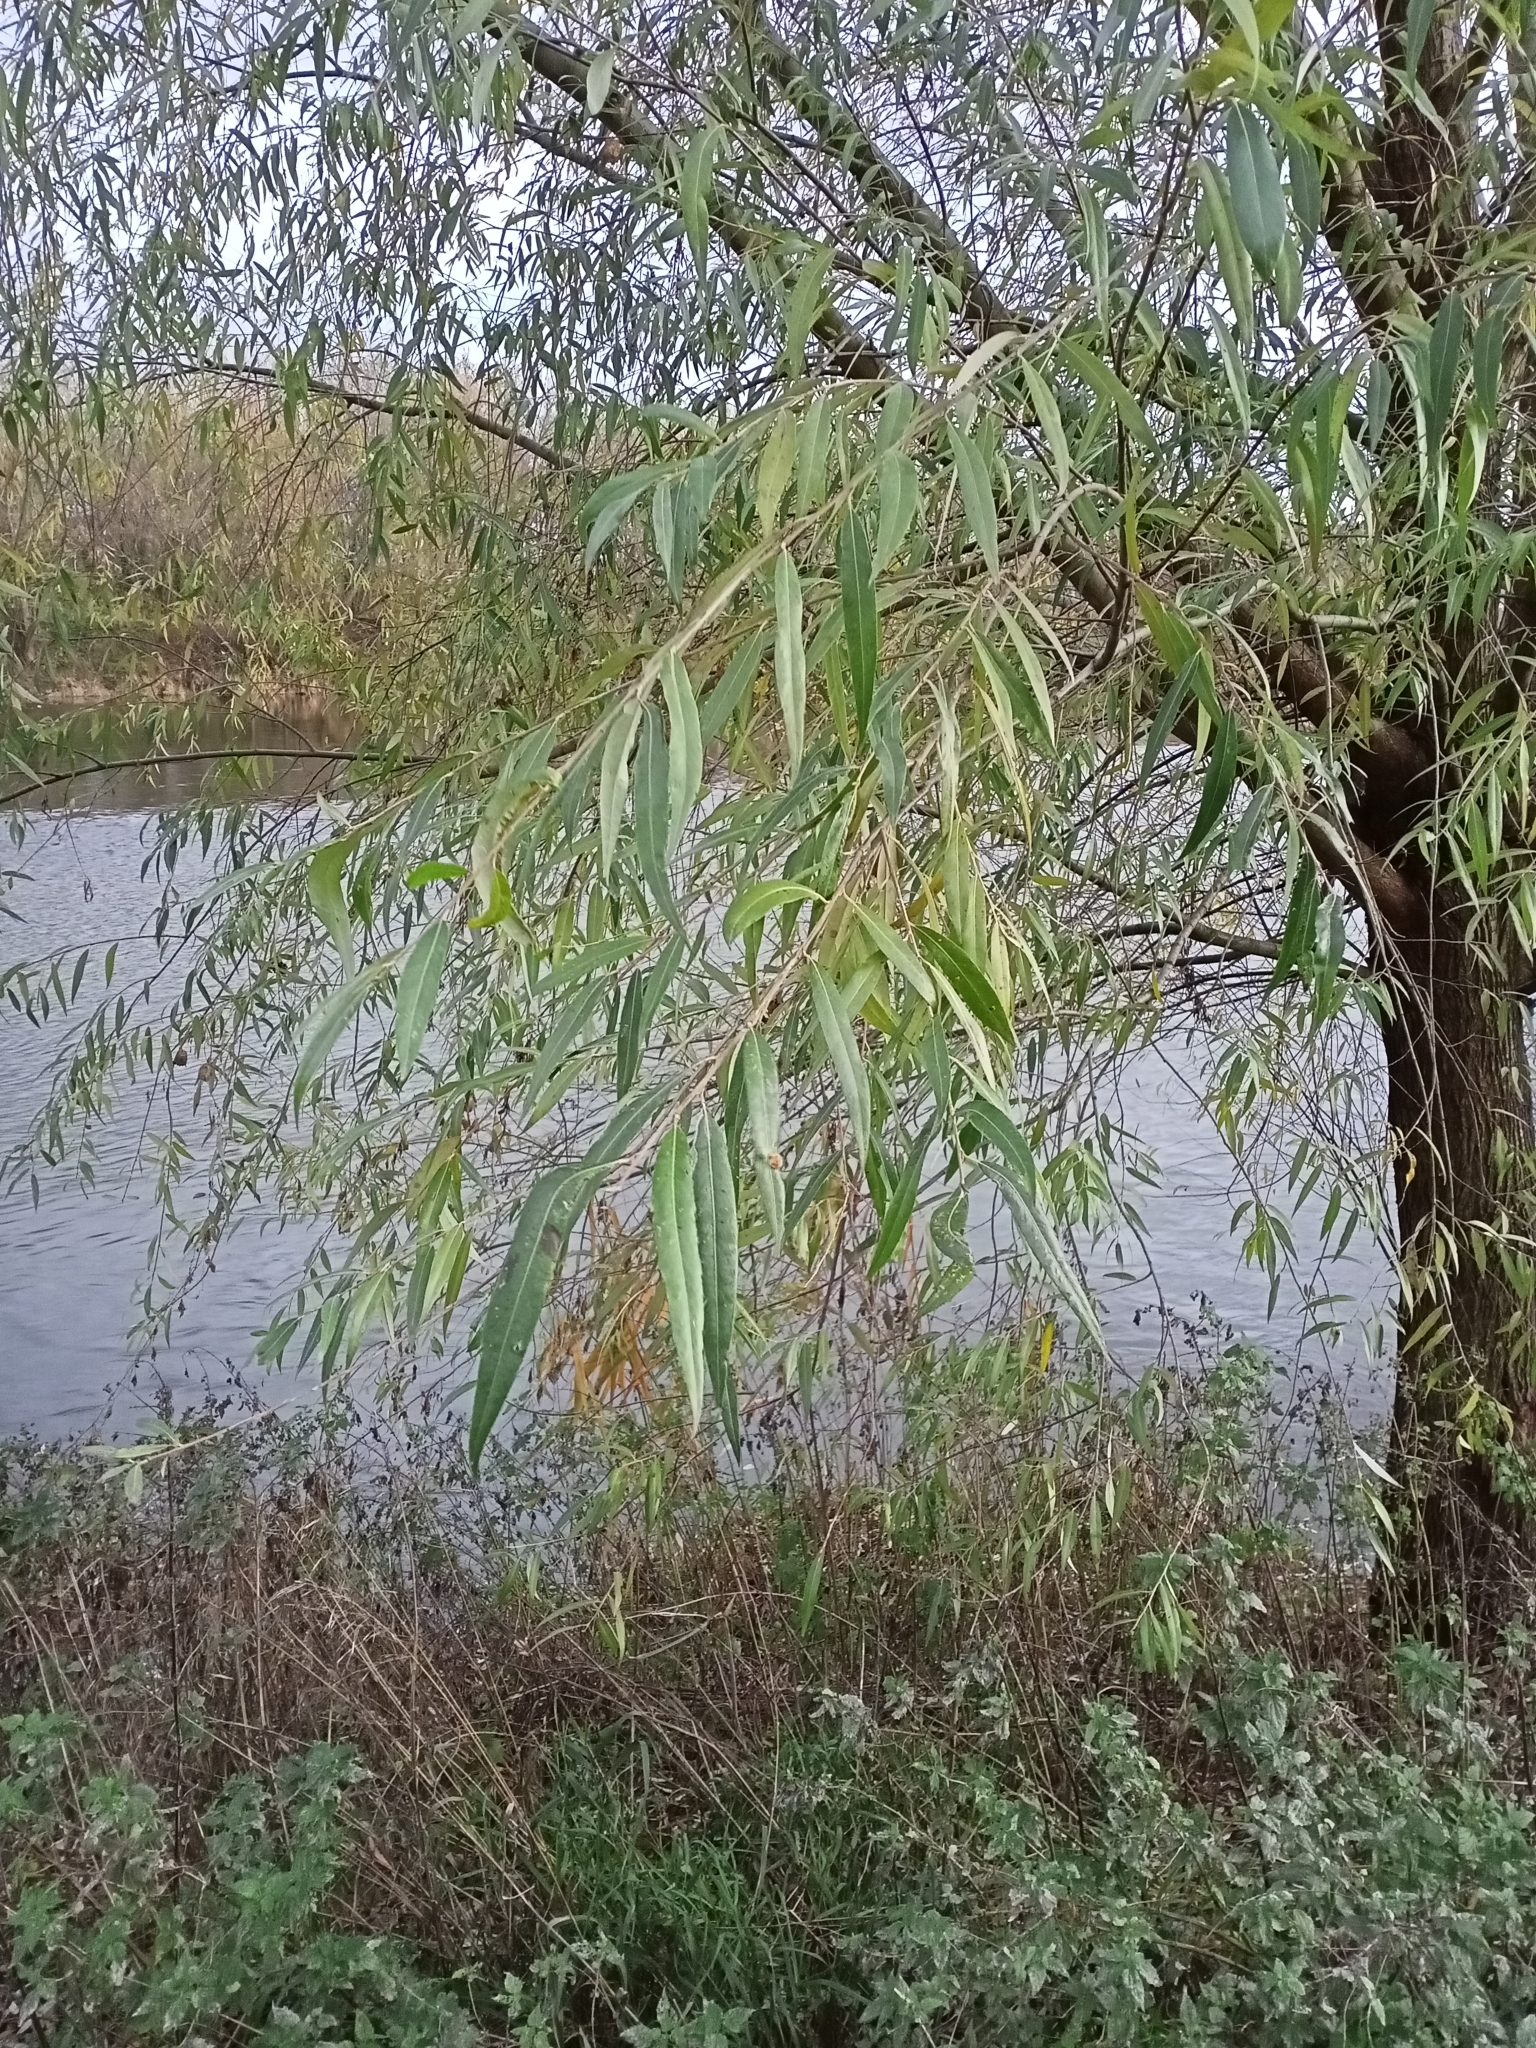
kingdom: Plantae
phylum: Tracheophyta
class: Magnoliopsida
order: Malpighiales
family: Salicaceae
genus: Salix
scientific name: Salix alba
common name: White willow
